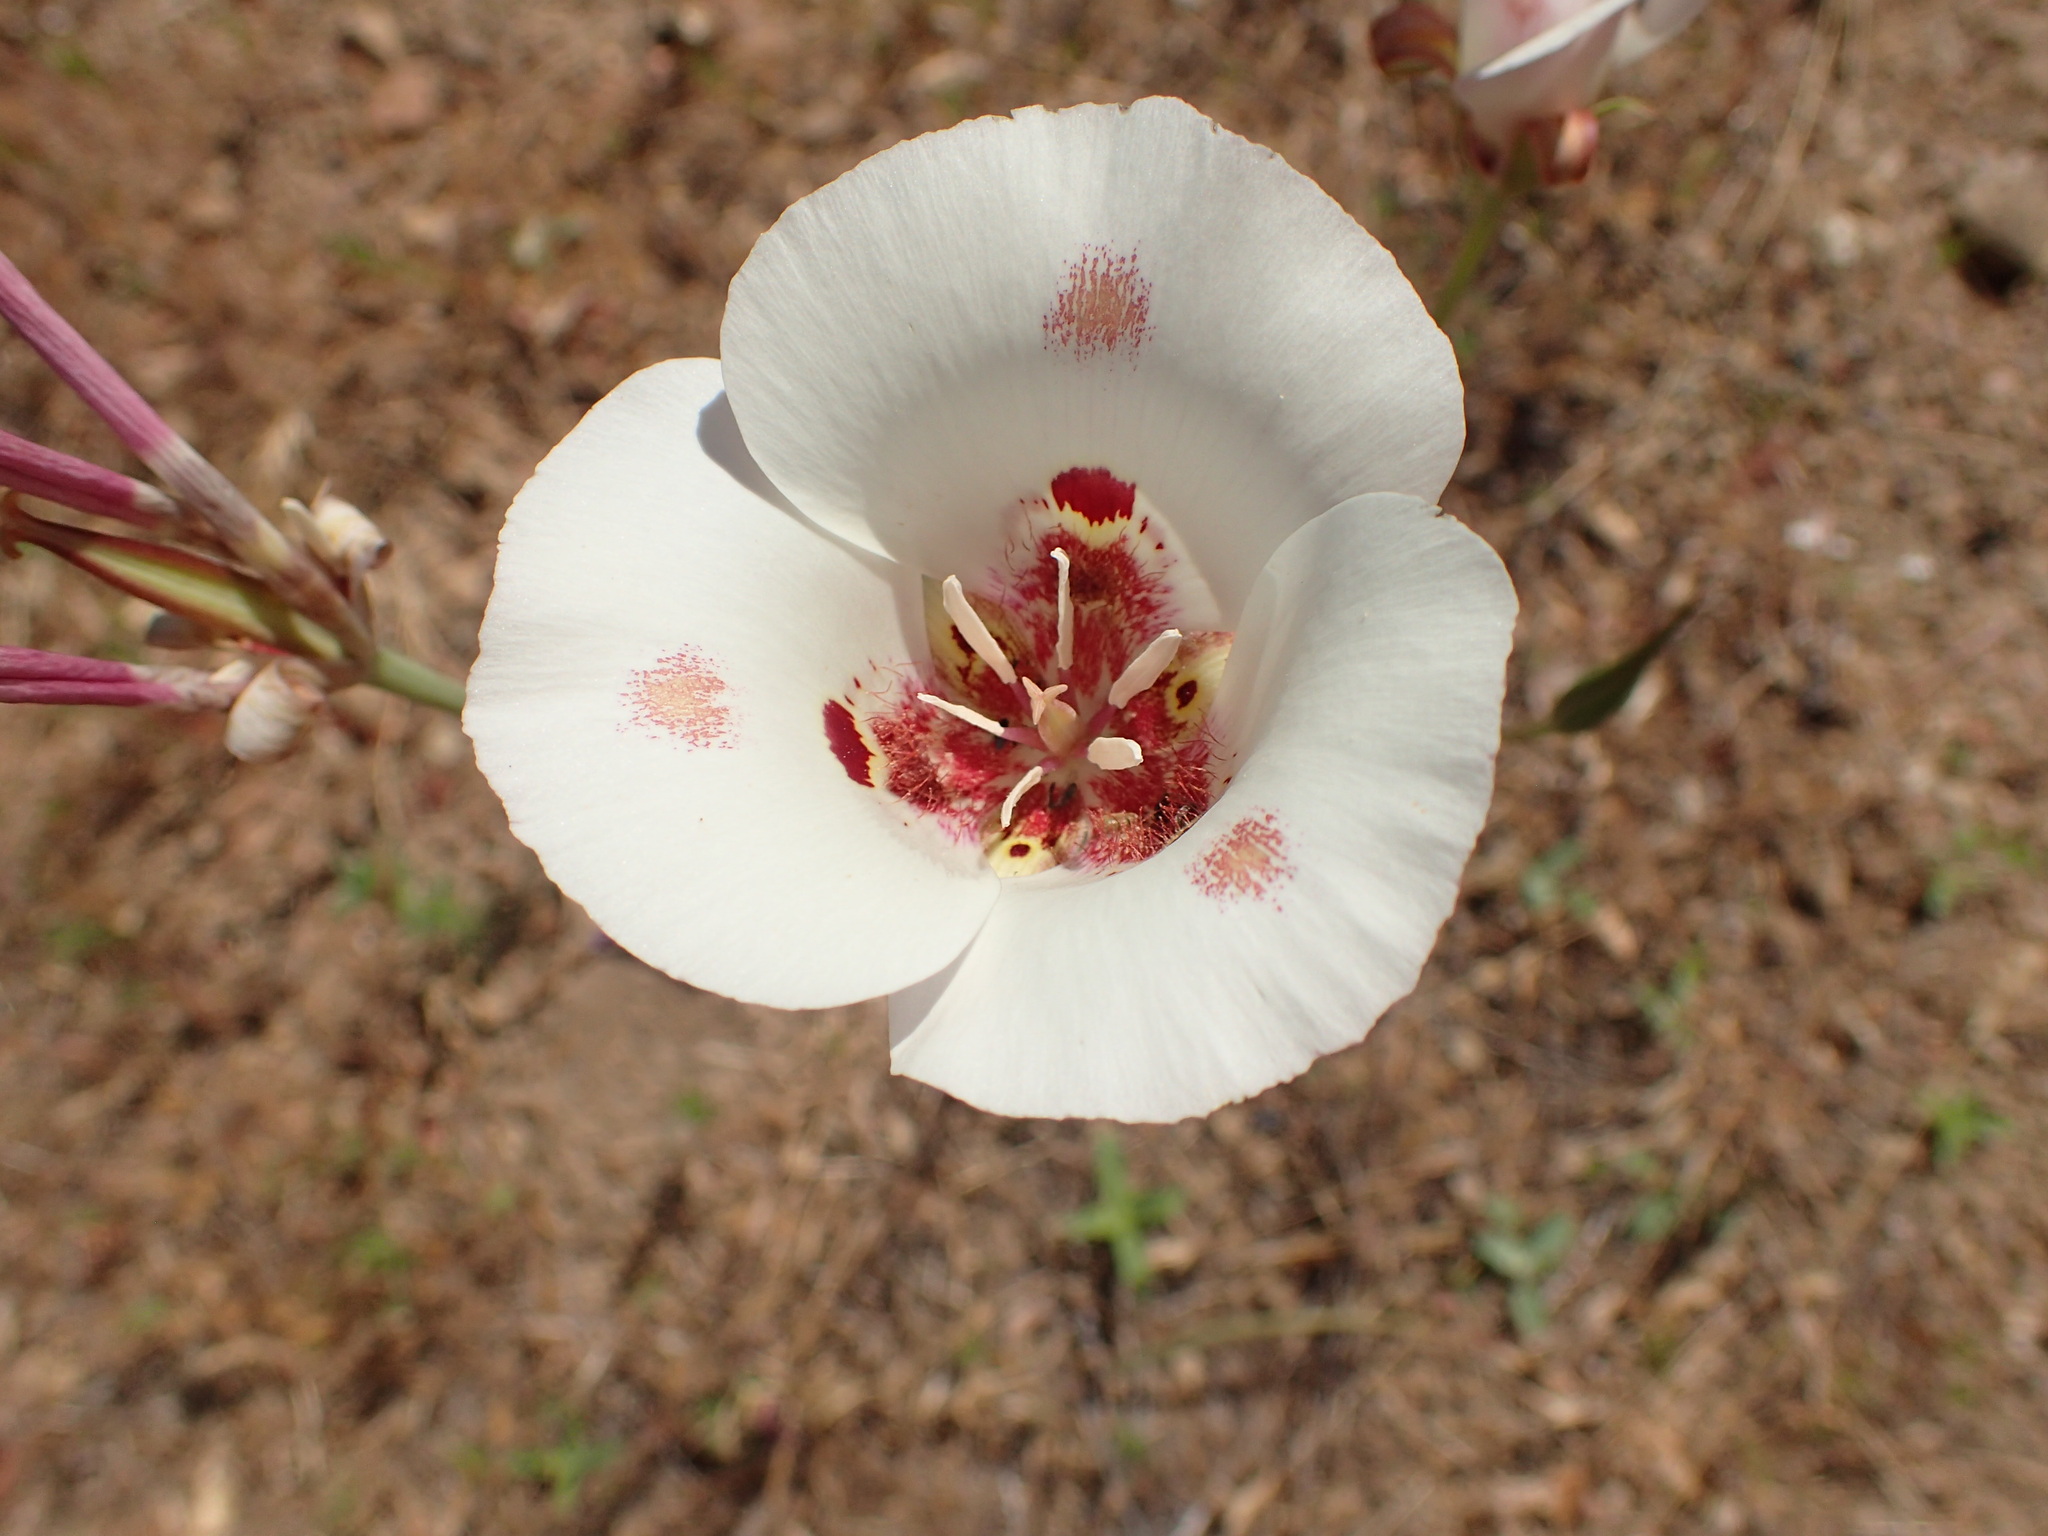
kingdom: Plantae
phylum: Tracheophyta
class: Liliopsida
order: Liliales
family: Liliaceae
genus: Calochortus
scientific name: Calochortus venustus
